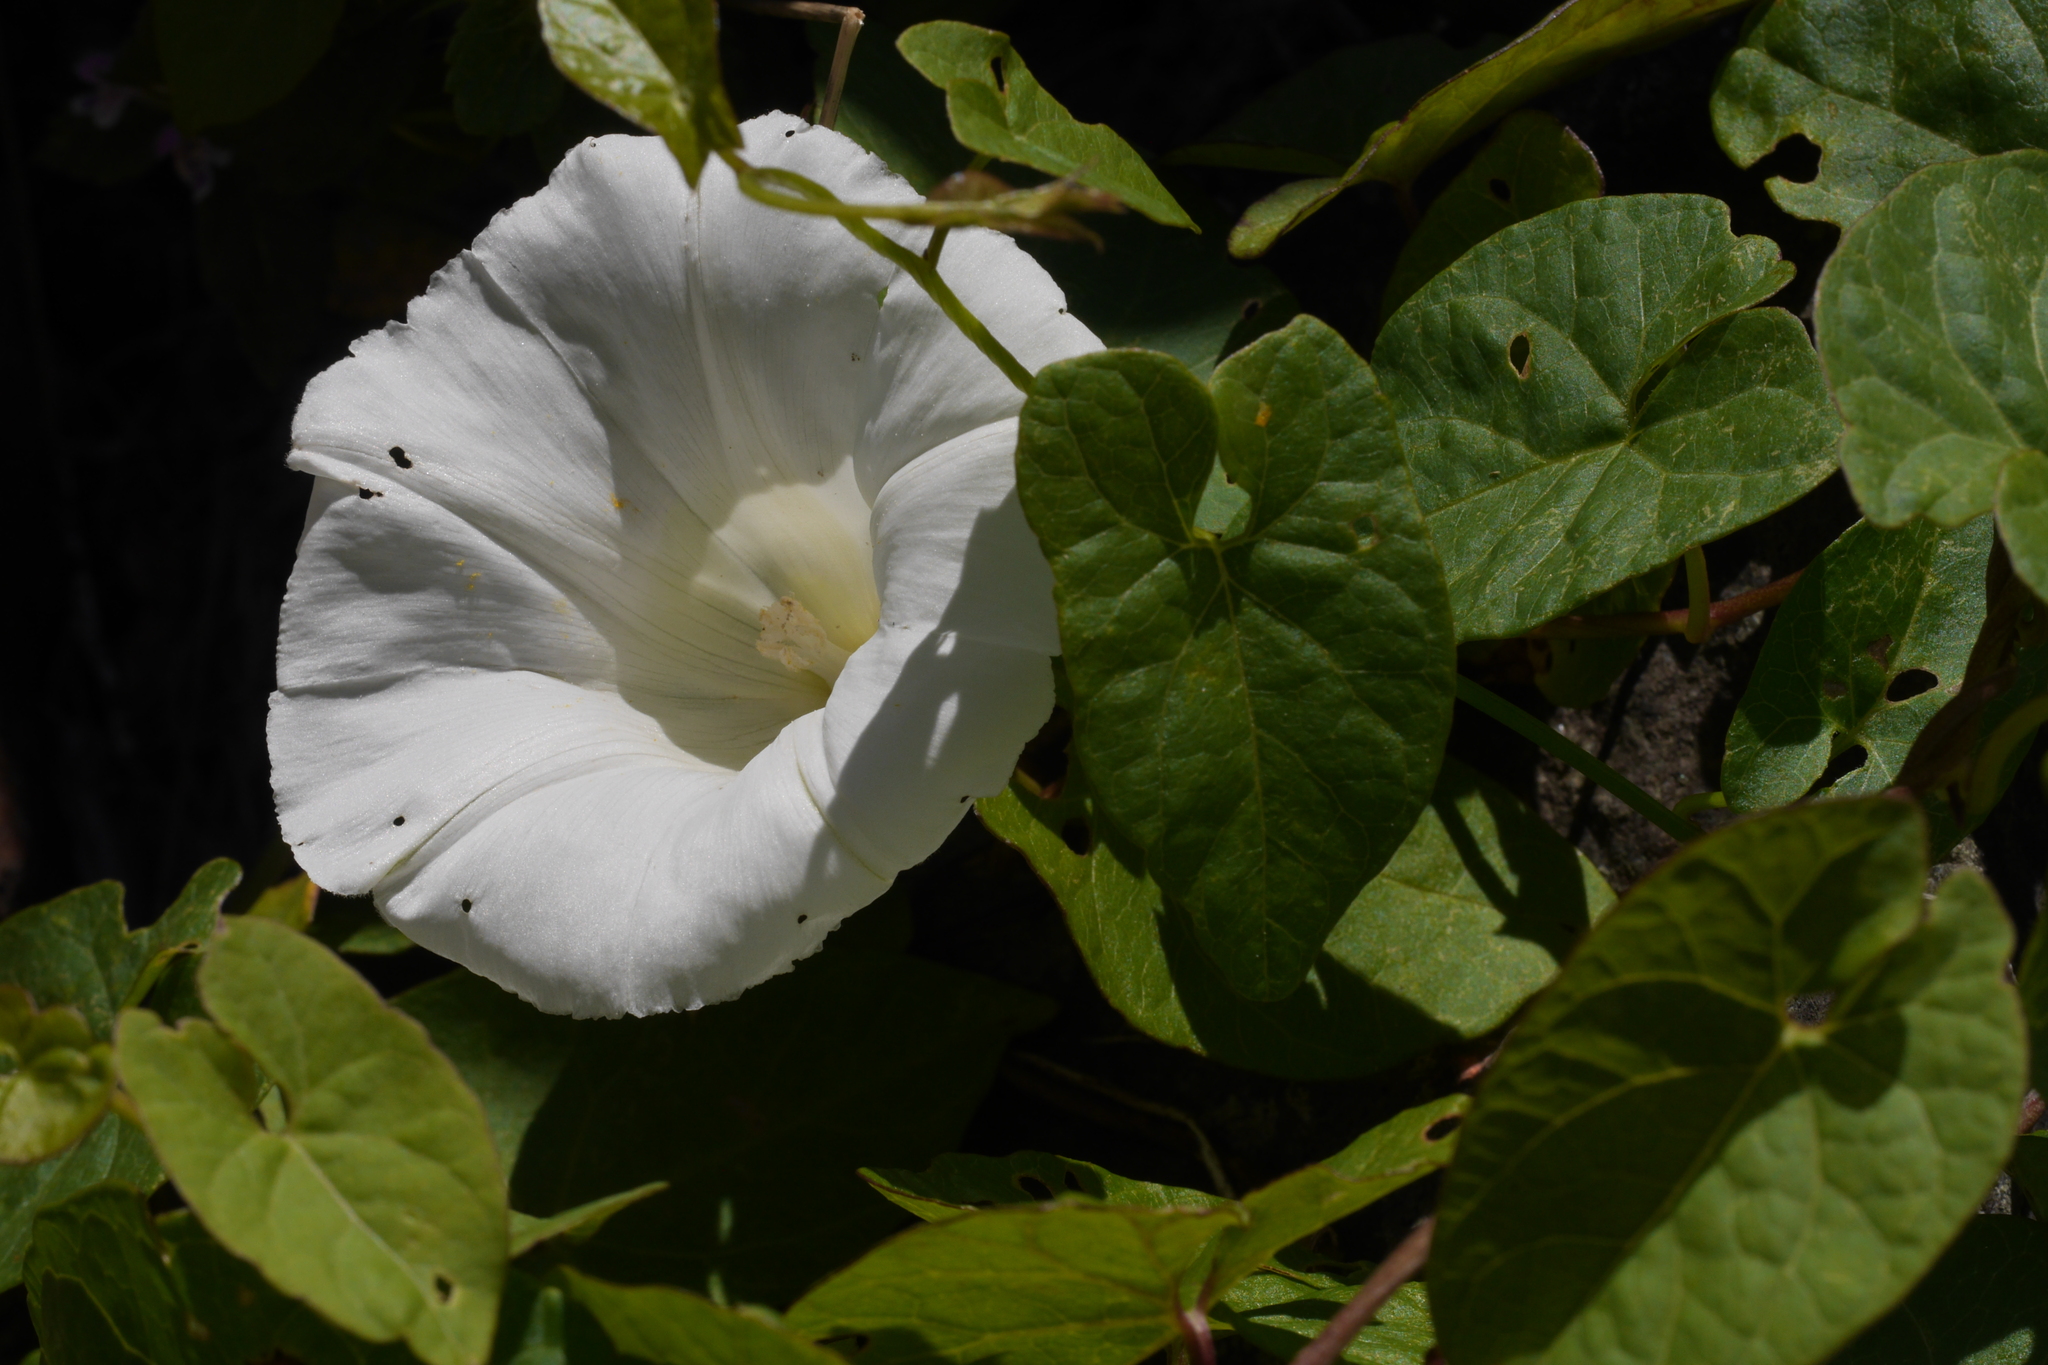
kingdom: Plantae
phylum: Tracheophyta
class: Magnoliopsida
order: Solanales
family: Convolvulaceae
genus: Calystegia
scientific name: Calystegia sepium
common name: Hedge bindweed
